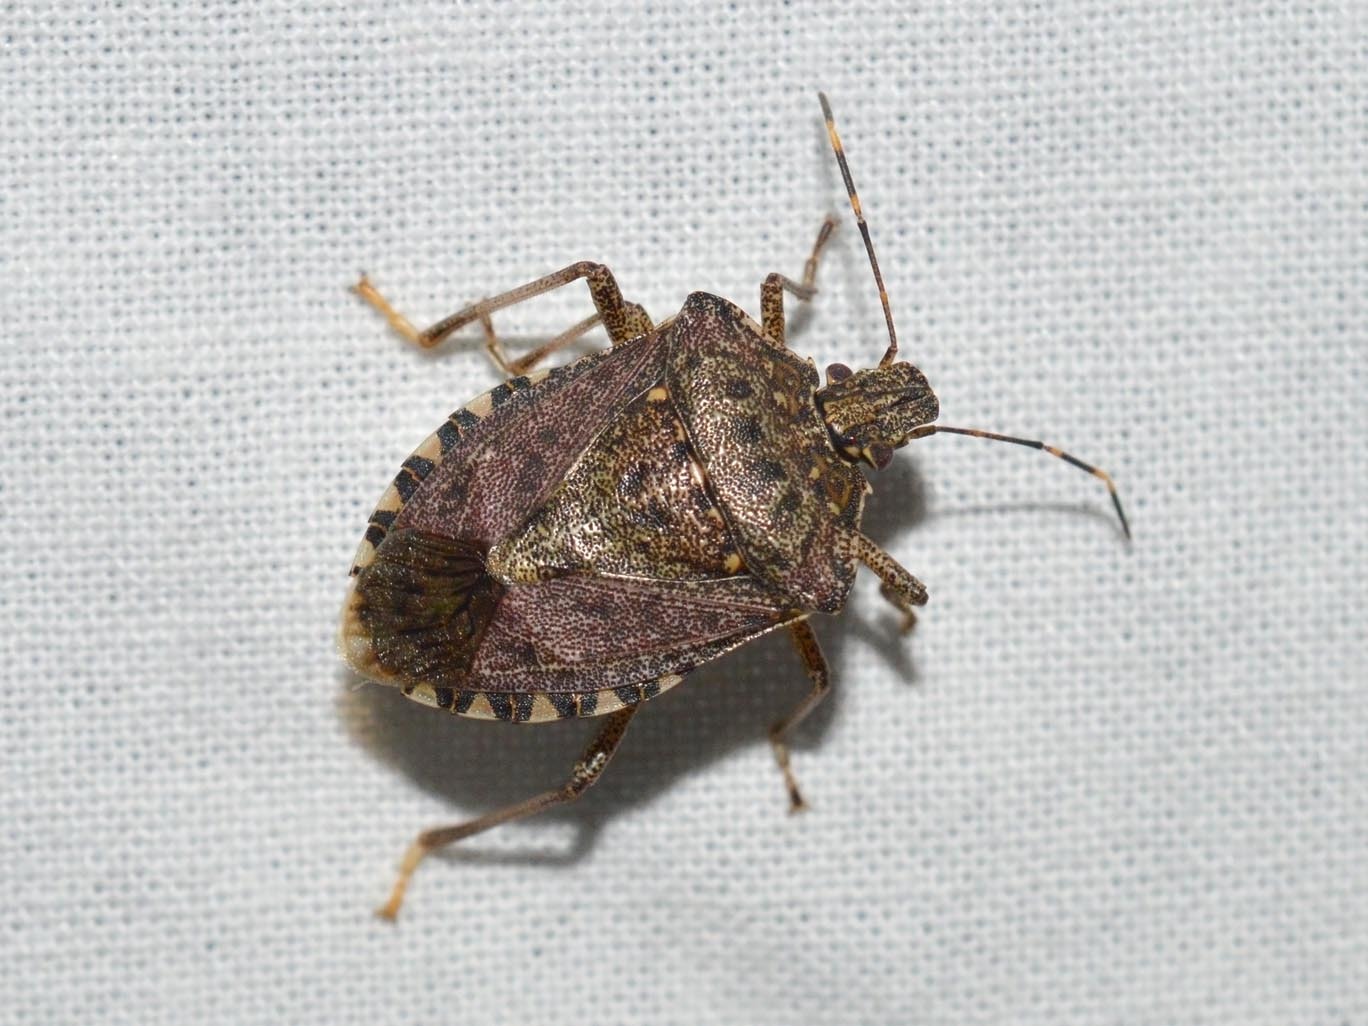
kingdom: Animalia
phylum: Arthropoda
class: Insecta
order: Hemiptera
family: Pentatomidae
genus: Halyomorpha
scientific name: Halyomorpha halys
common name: Brown marmorated stink bug
